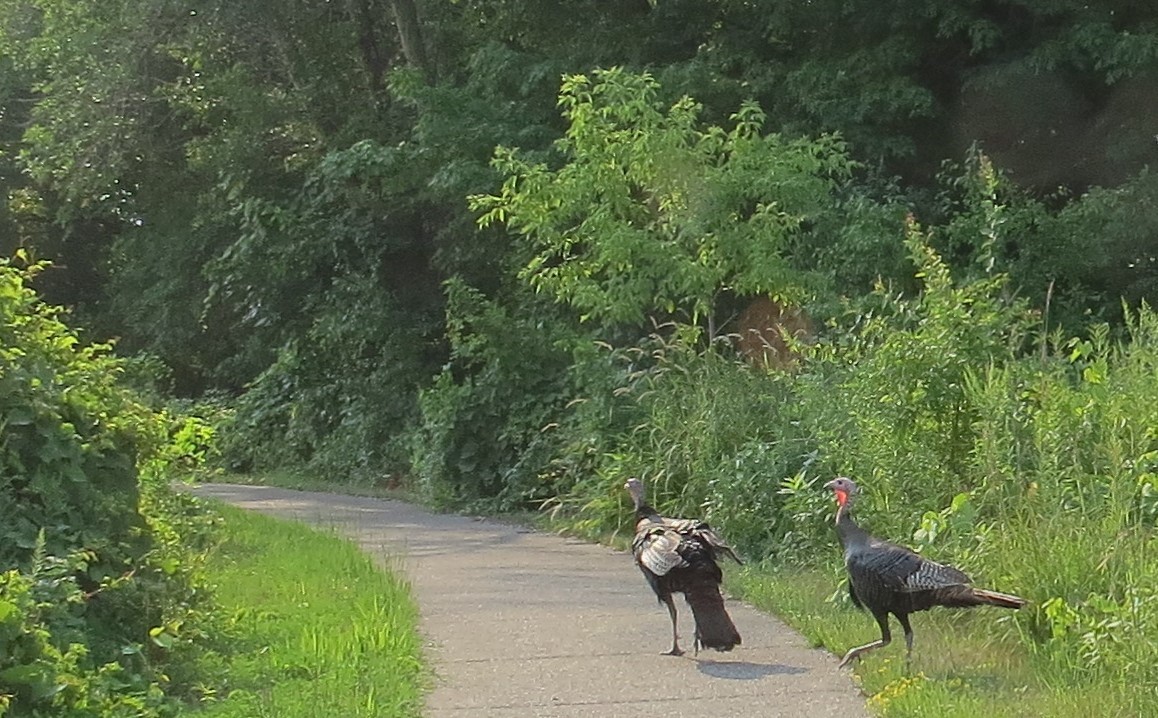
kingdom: Animalia
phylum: Chordata
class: Aves
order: Galliformes
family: Phasianidae
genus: Meleagris
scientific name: Meleagris gallopavo
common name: Wild turkey
